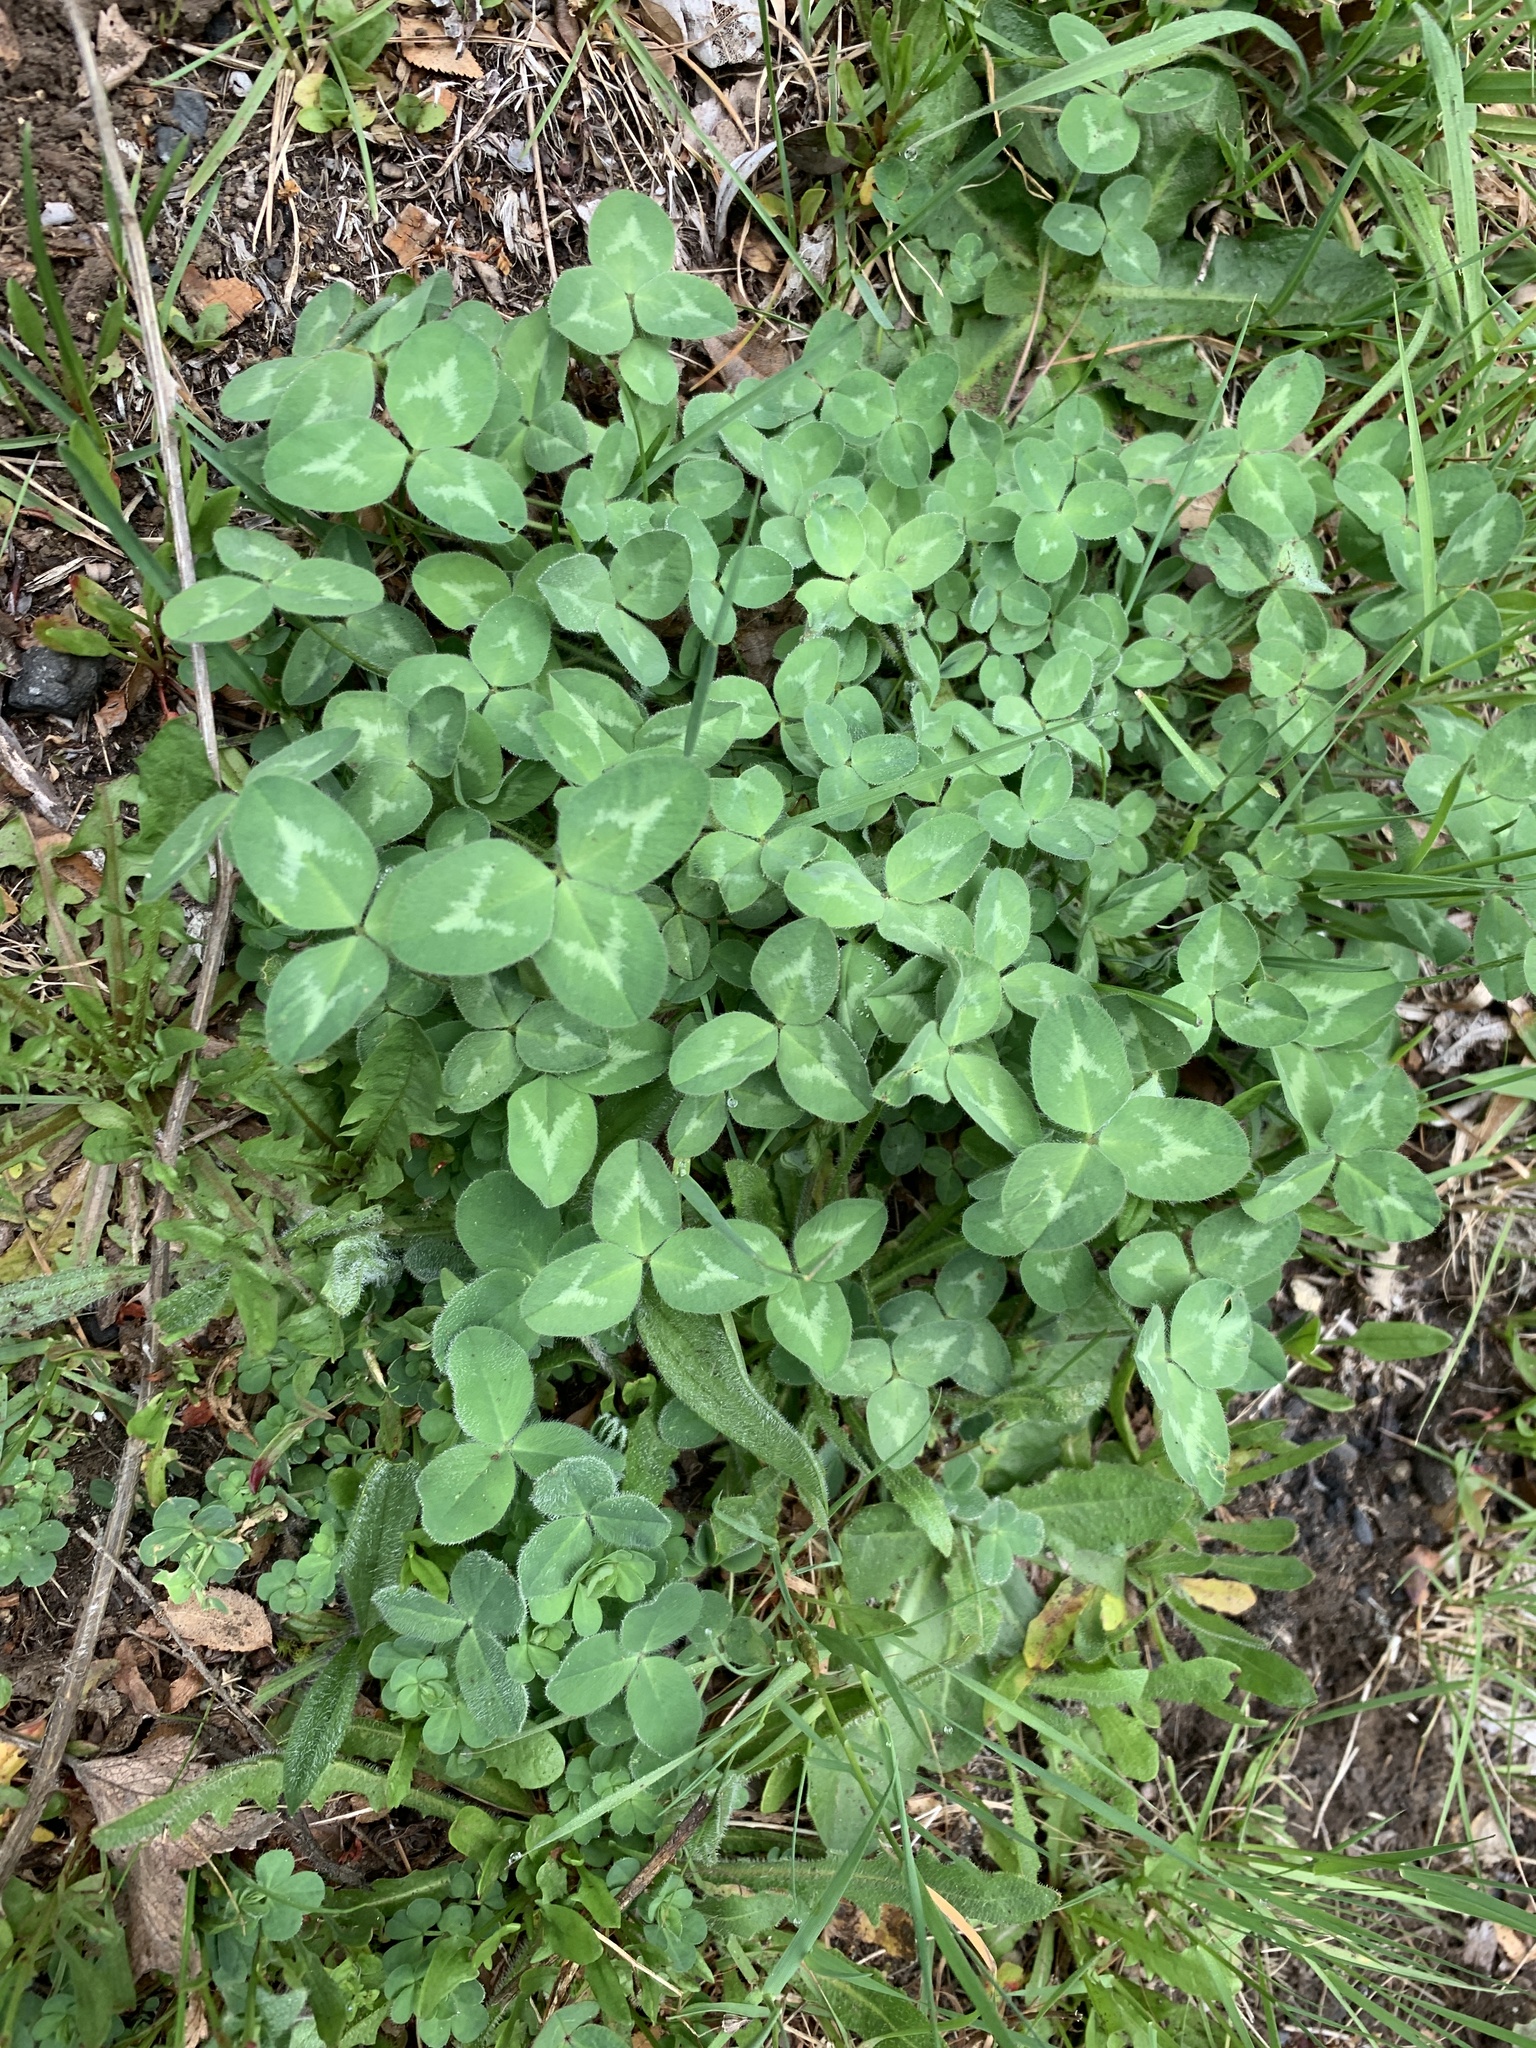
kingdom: Plantae
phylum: Tracheophyta
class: Magnoliopsida
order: Fabales
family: Fabaceae
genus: Trifolium
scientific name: Trifolium pratense
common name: Red clover
